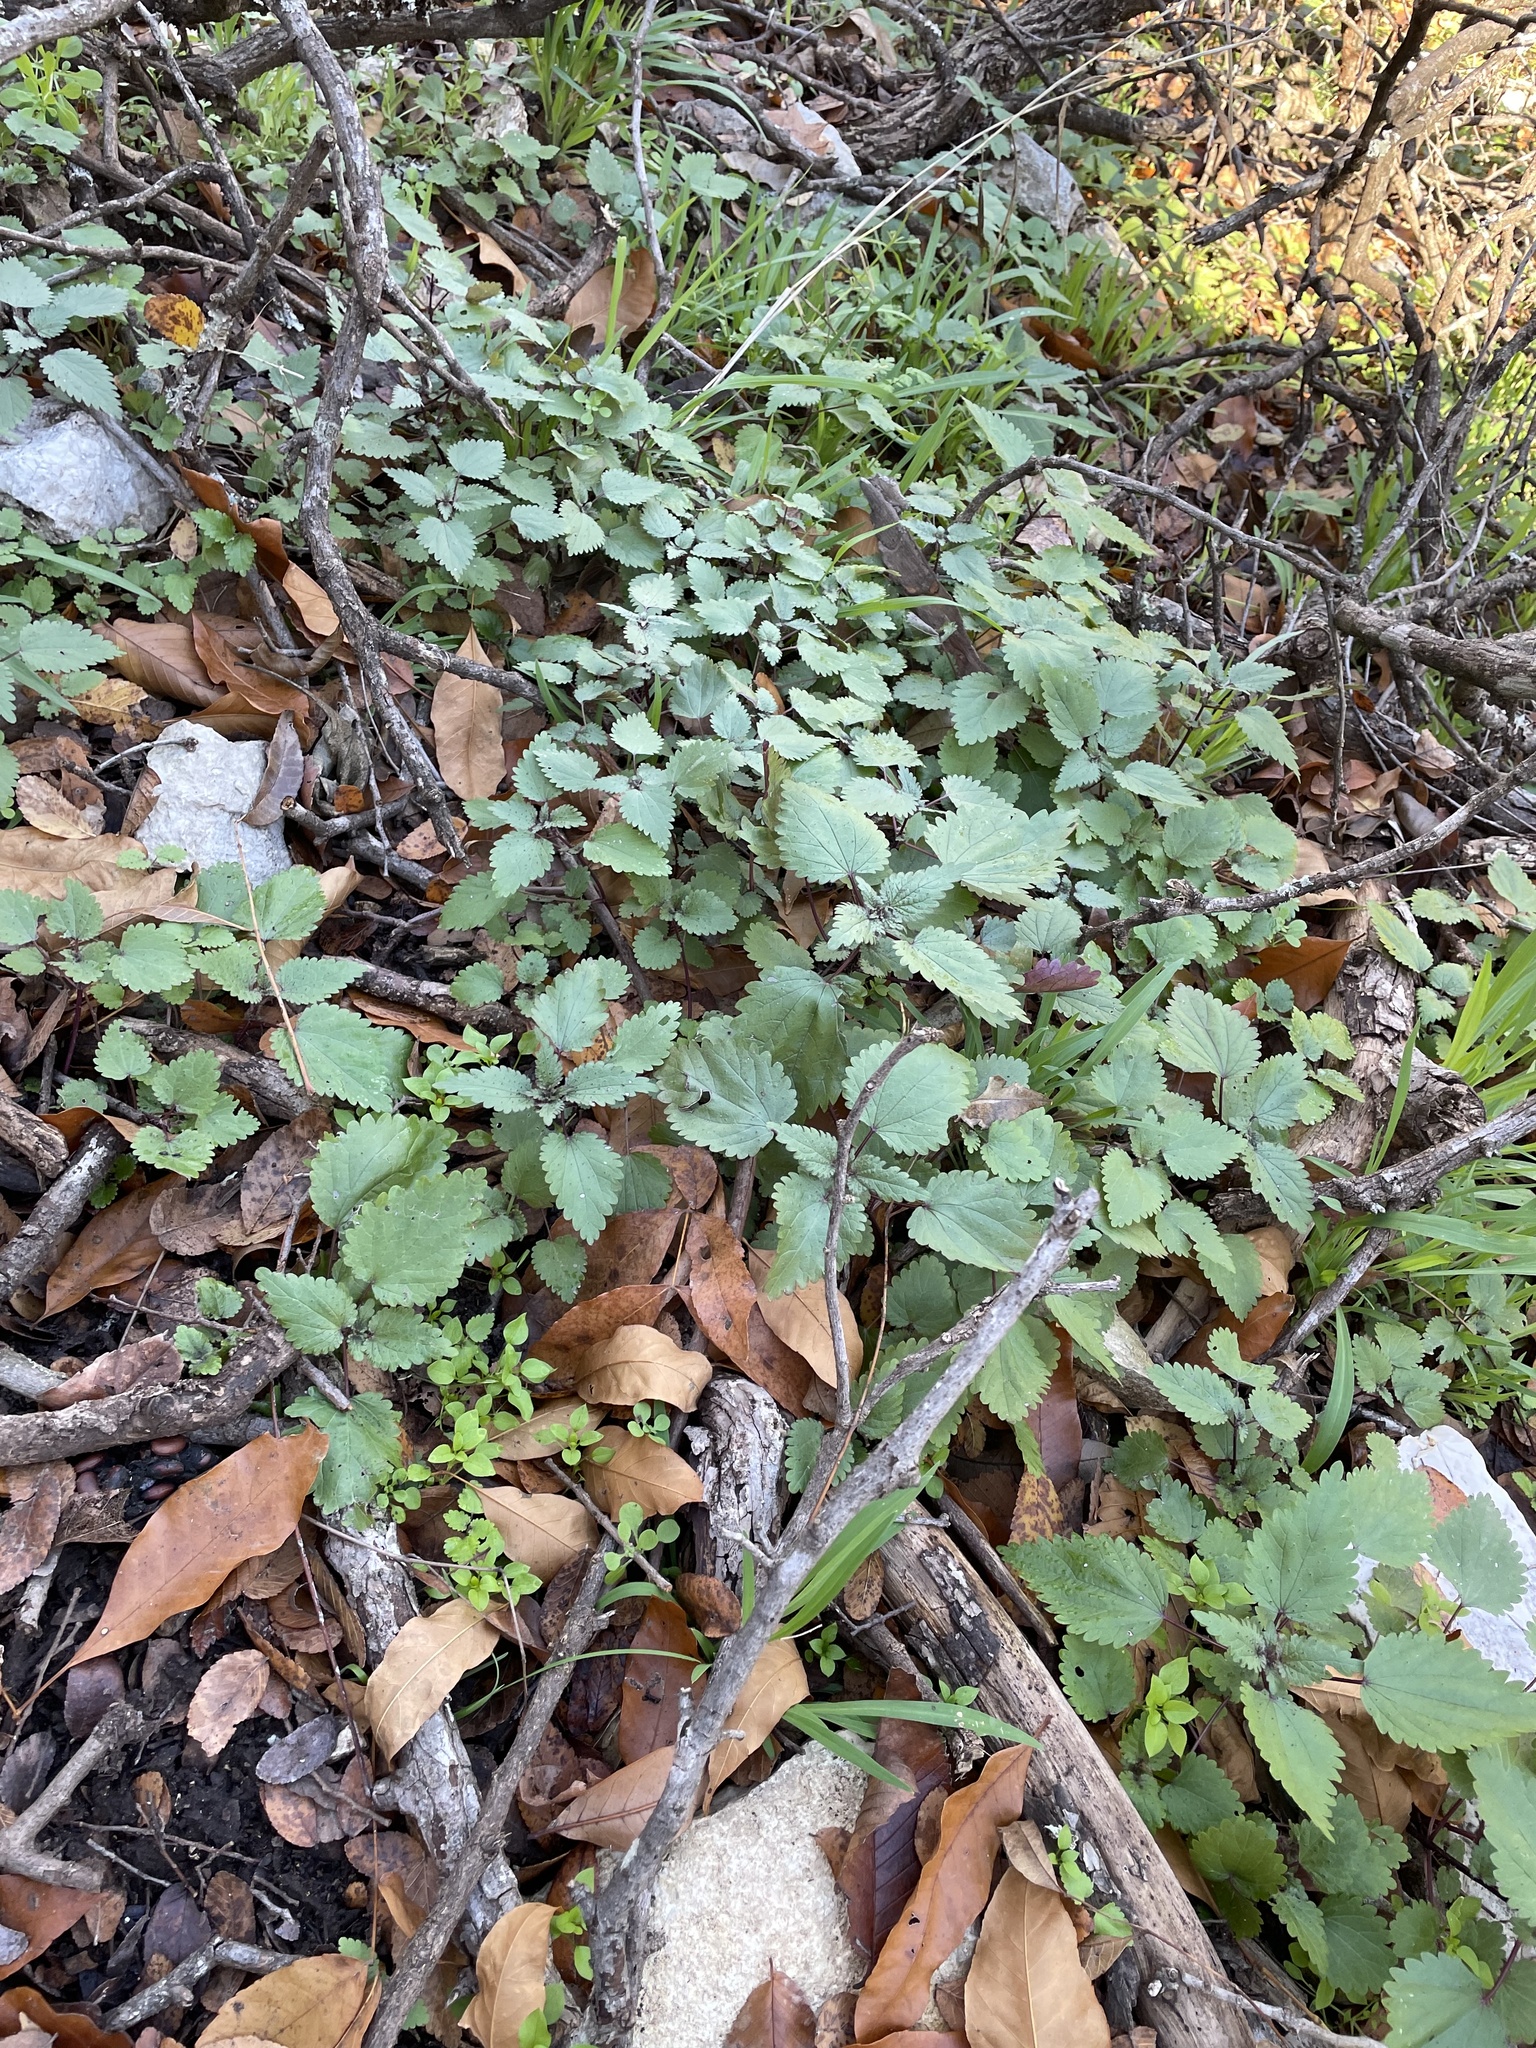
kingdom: Plantae
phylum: Tracheophyta
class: Magnoliopsida
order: Rosales
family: Urticaceae
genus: Urtica
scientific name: Urtica chamaedryoides
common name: Heart-leaf nettle
